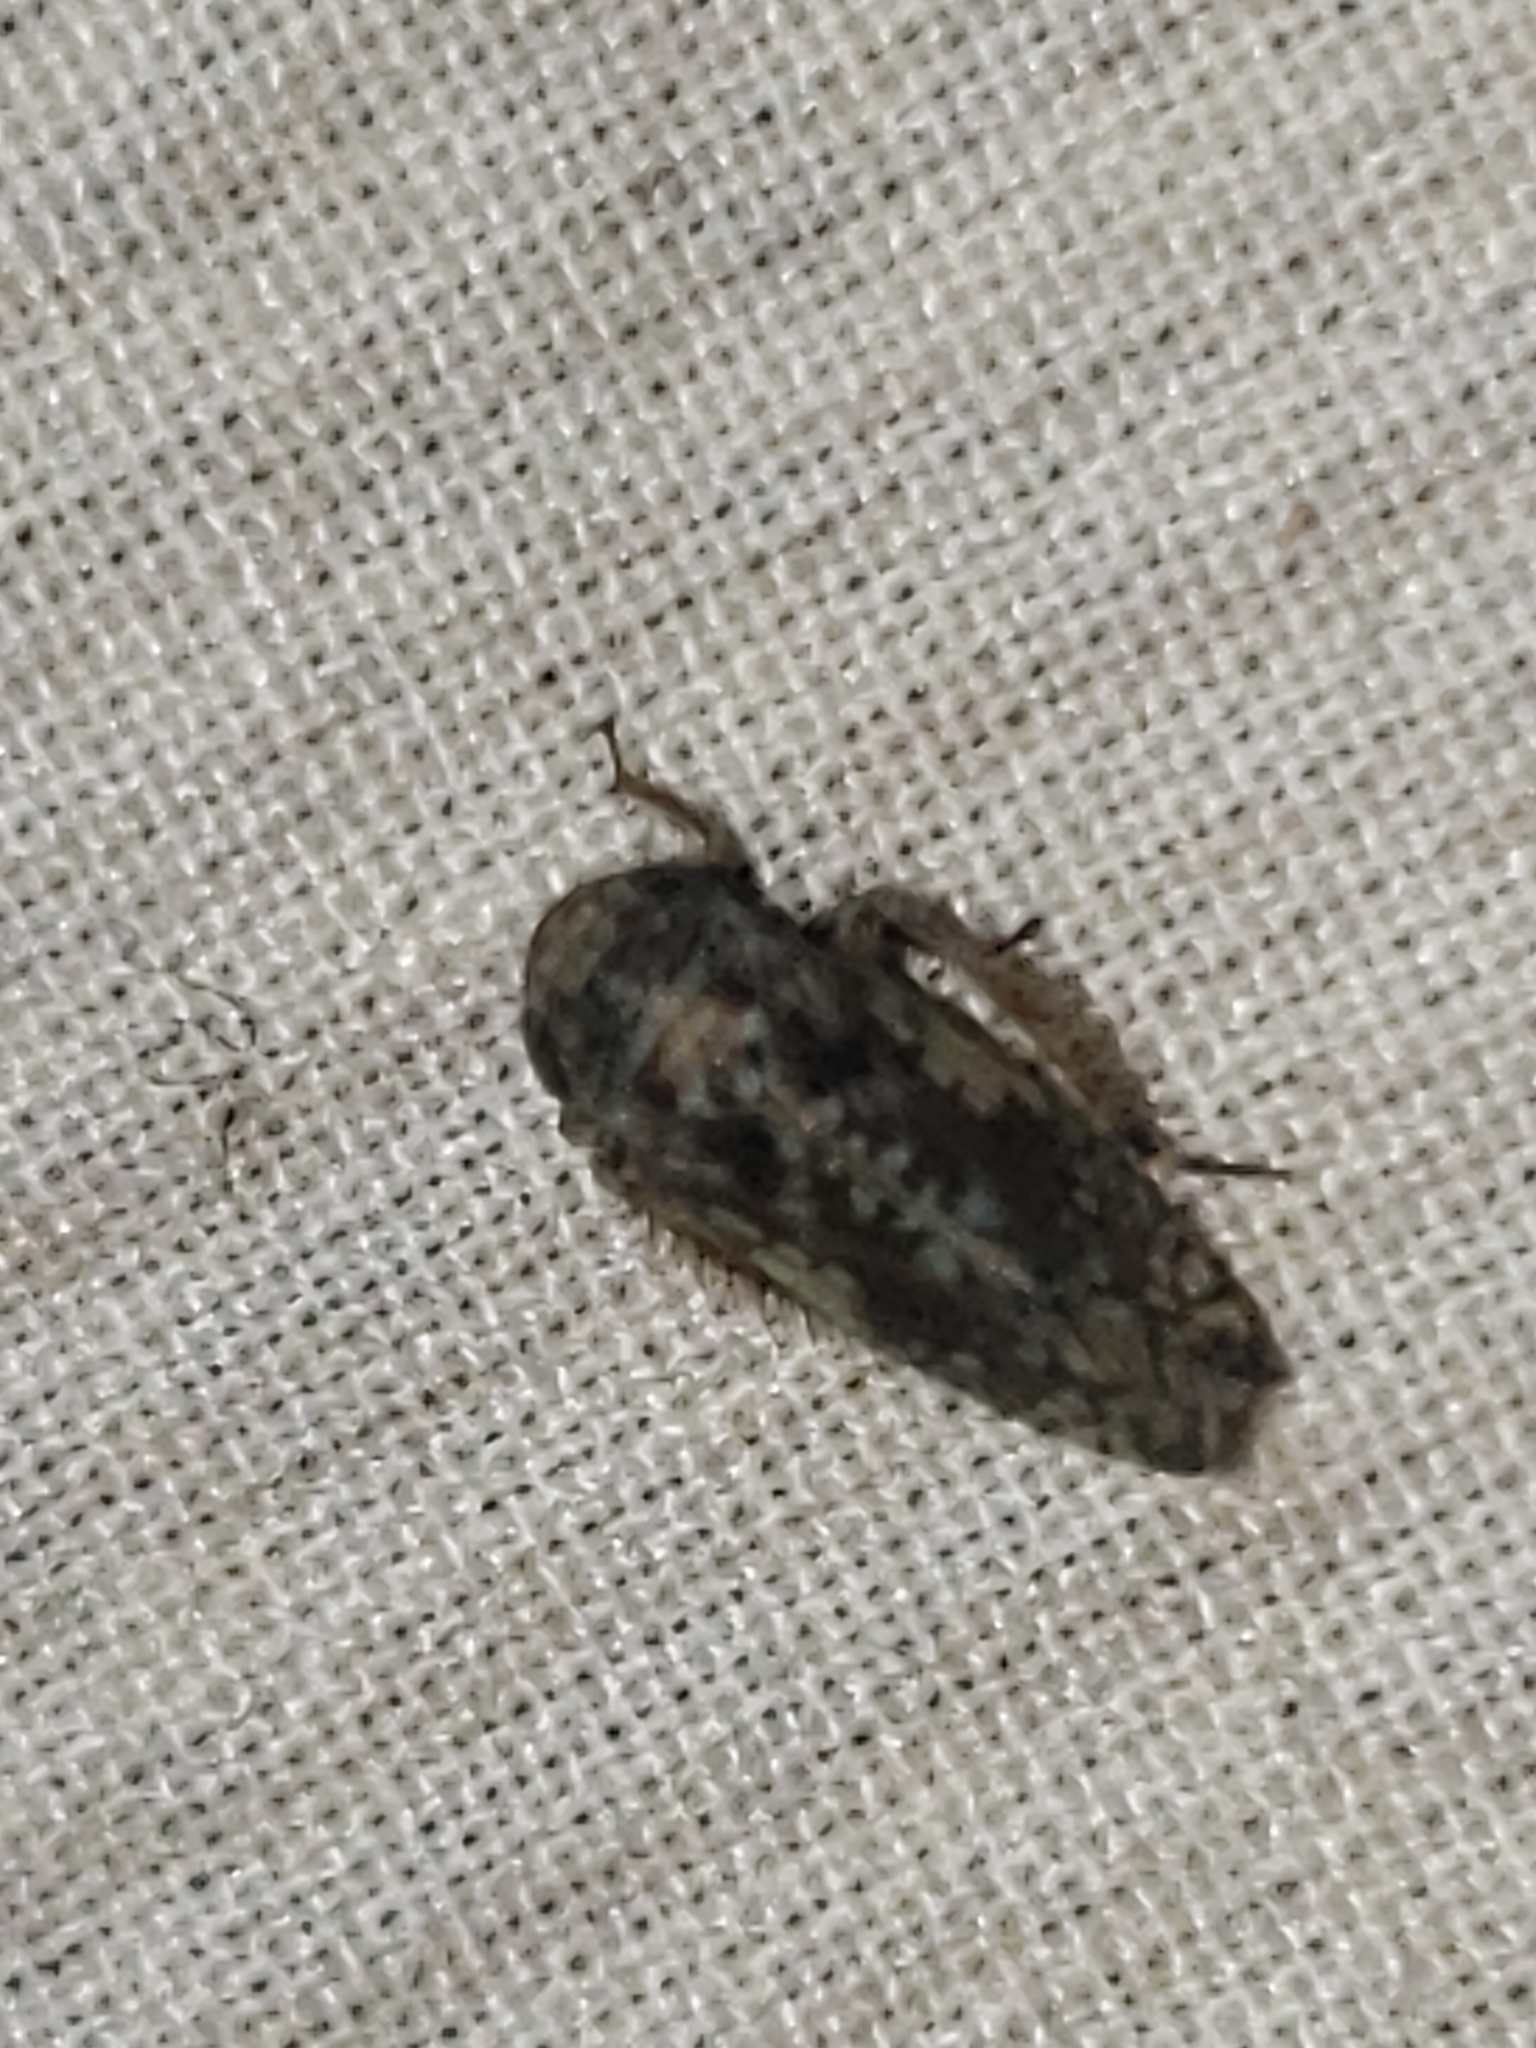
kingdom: Animalia
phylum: Arthropoda
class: Insecta
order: Hemiptera
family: Cicadellidae
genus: Menosoma
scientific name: Menosoma cinctum
